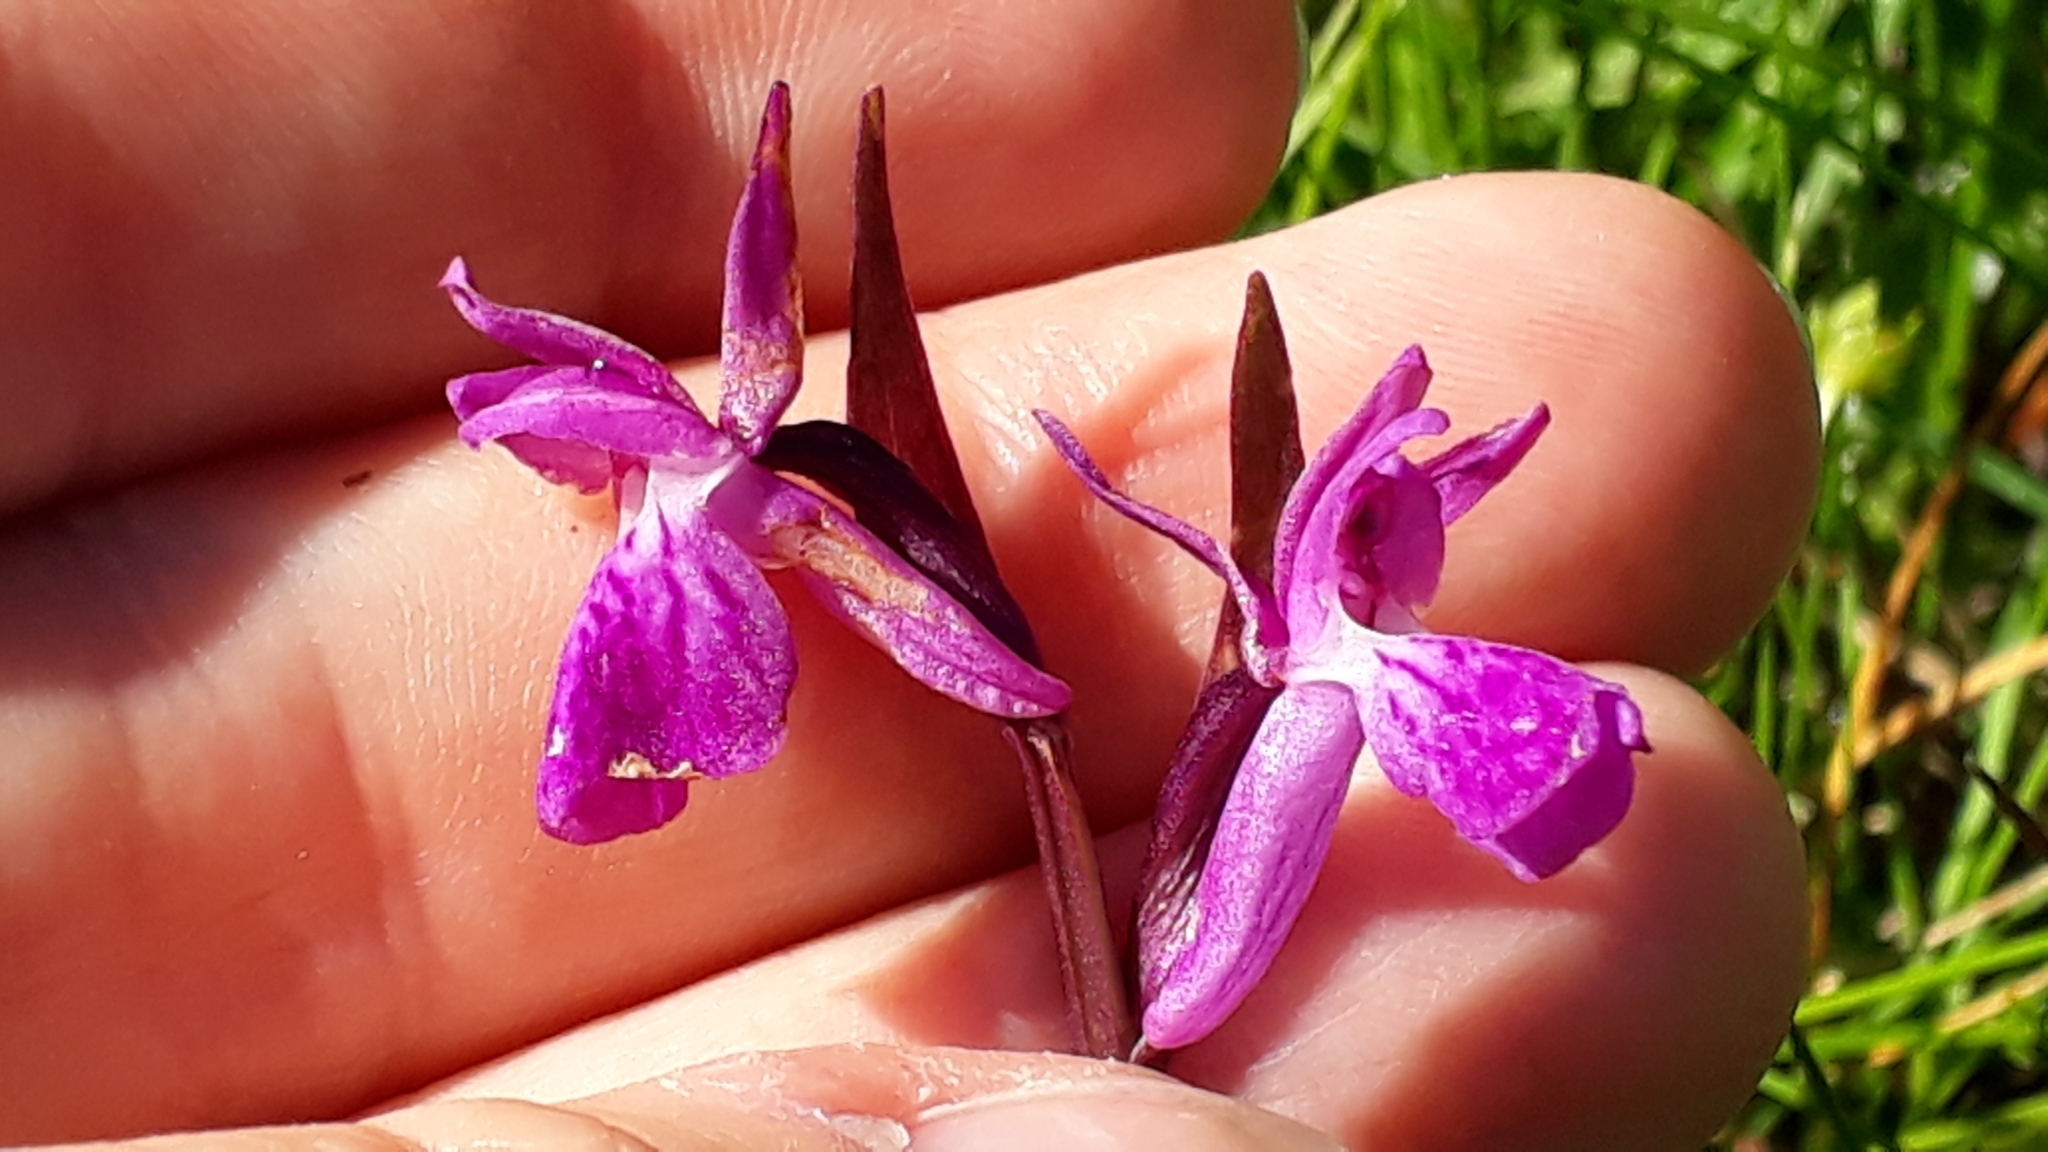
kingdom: Plantae
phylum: Tracheophyta
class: Liliopsida
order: Asparagales
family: Orchidaceae
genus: Dactylorhiza
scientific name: Dactylorhiza majalis
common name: Marsh orchid
